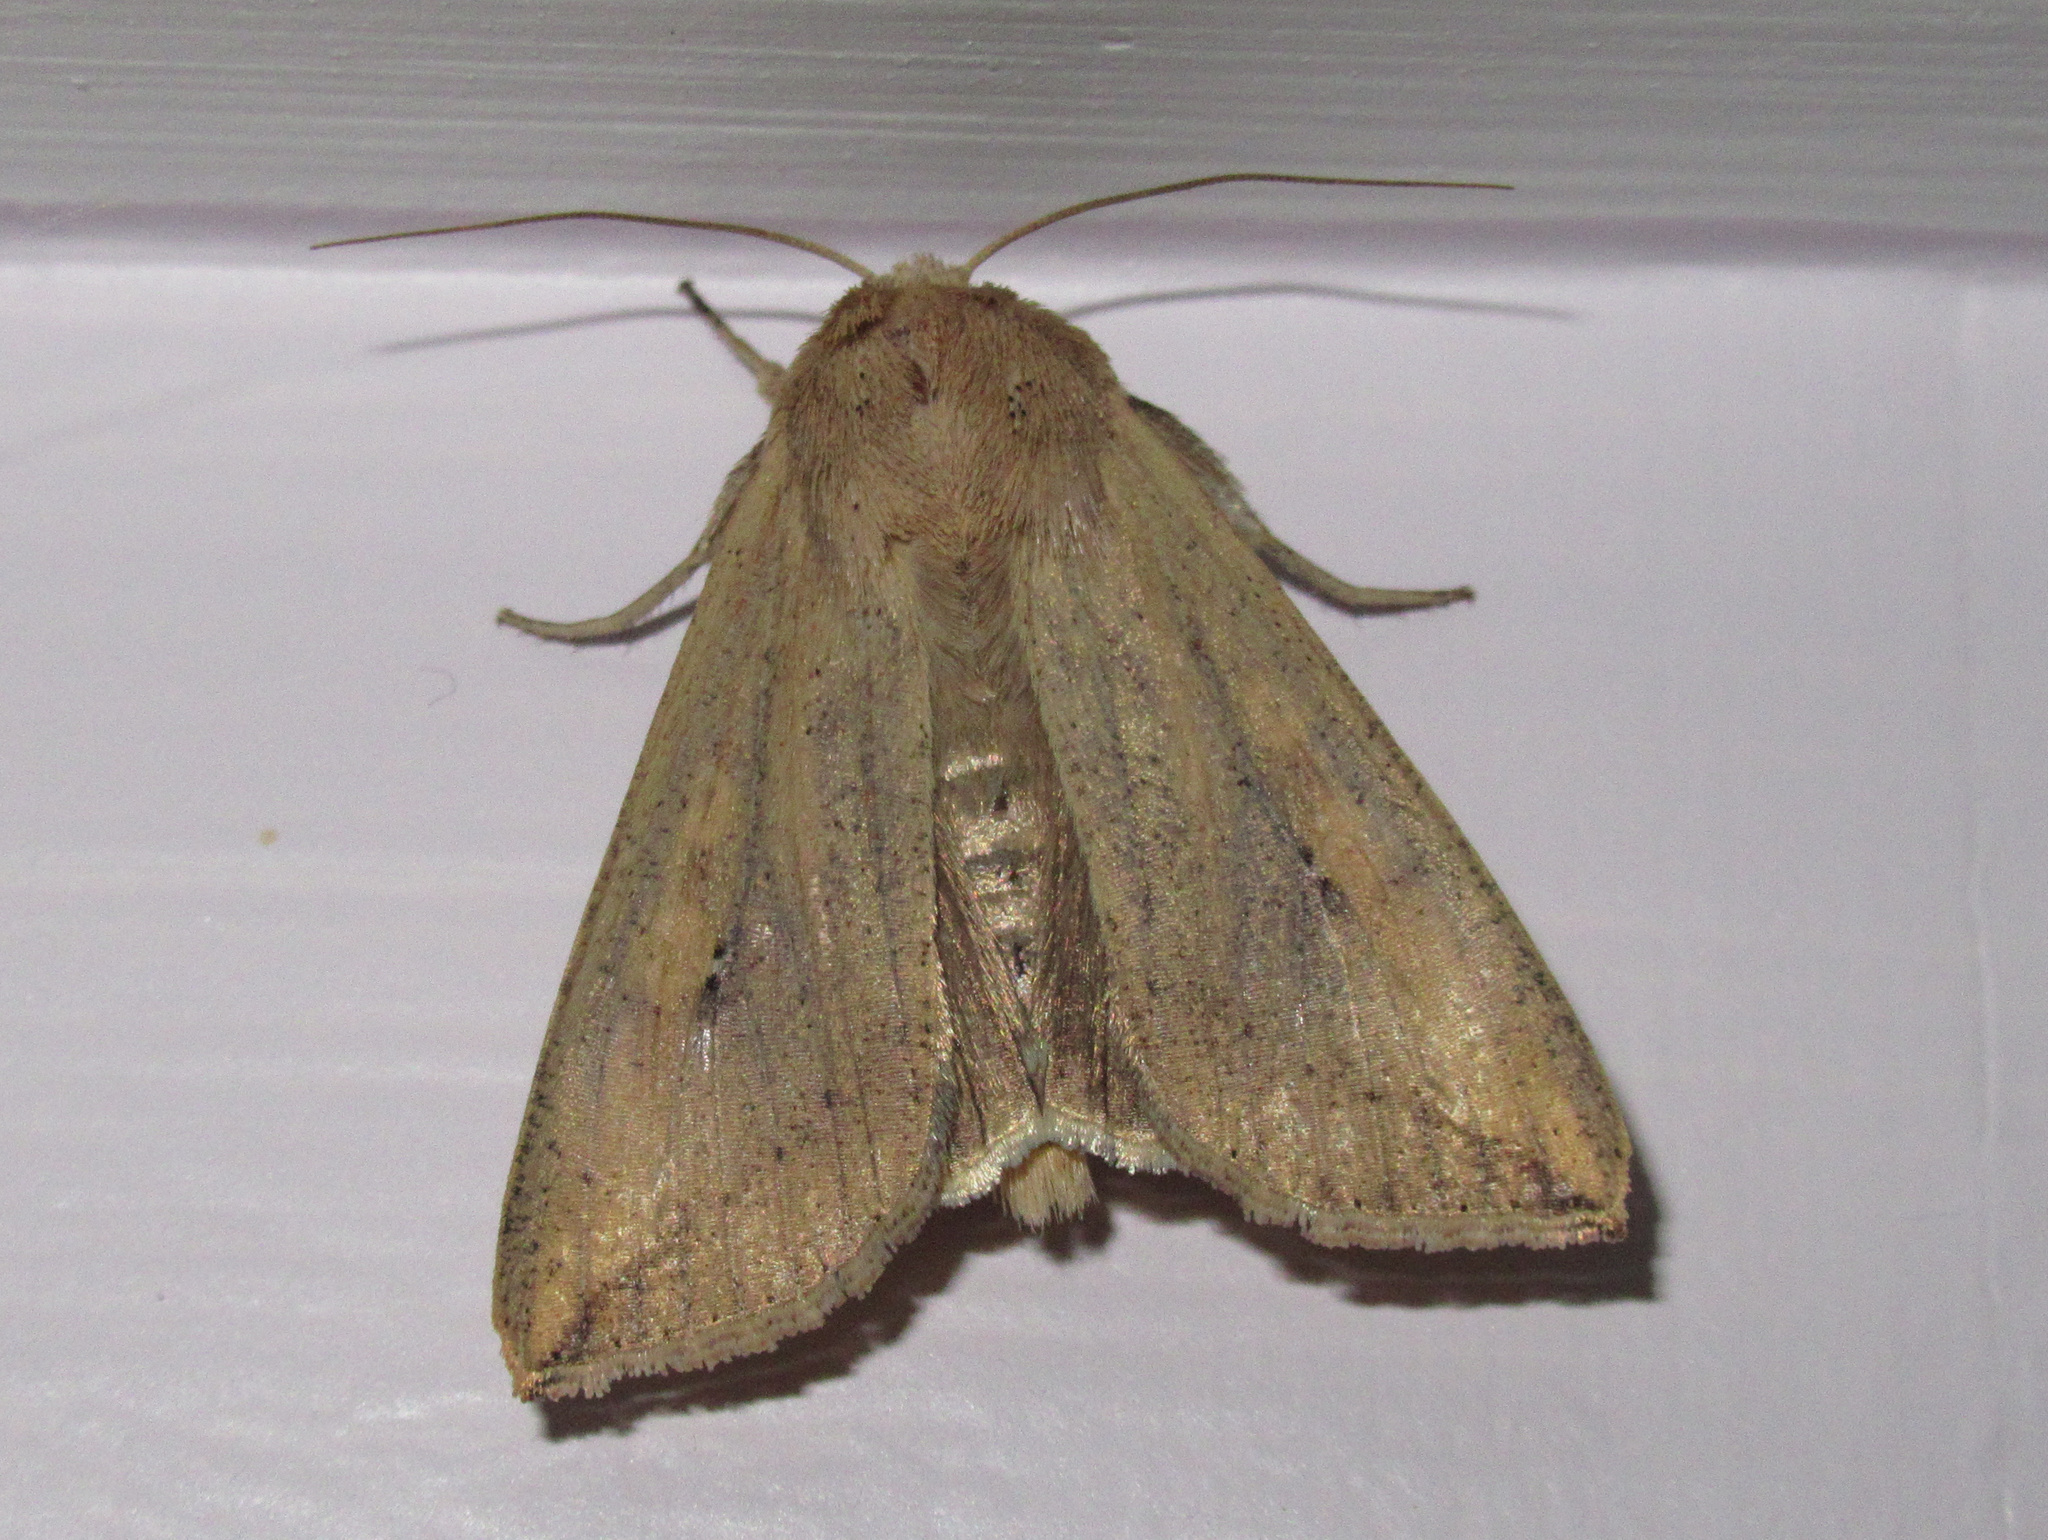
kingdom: Animalia
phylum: Arthropoda
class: Insecta
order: Lepidoptera
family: Noctuidae
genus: Mythimna
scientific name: Mythimna separata
